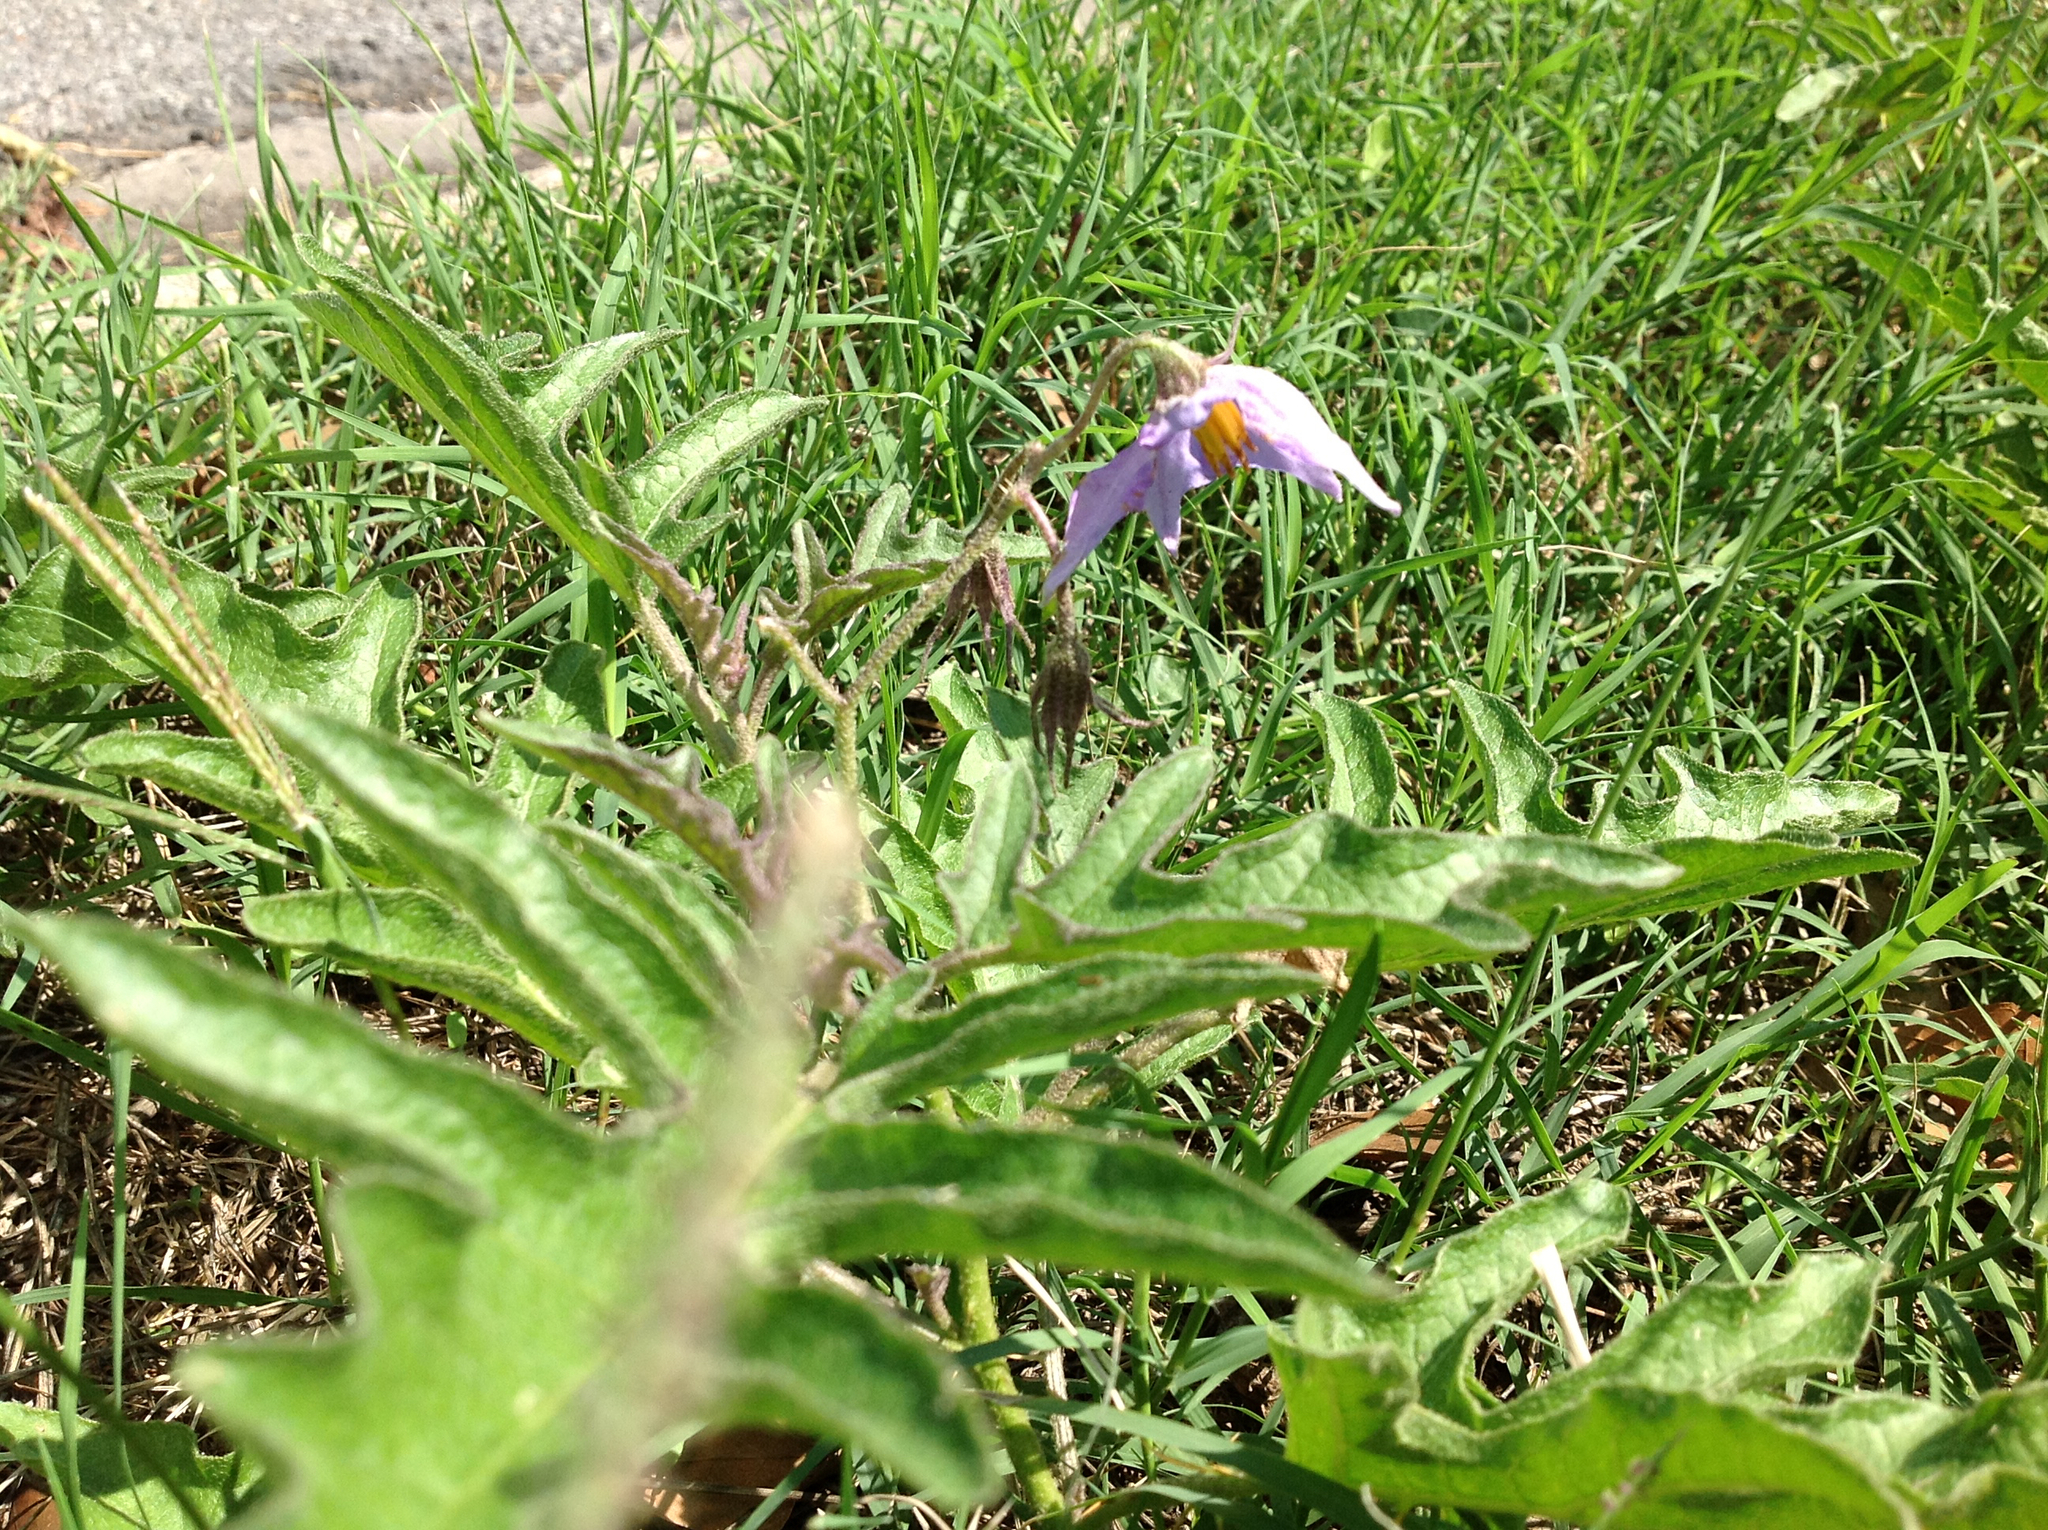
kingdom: Plantae
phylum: Tracheophyta
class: Magnoliopsida
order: Solanales
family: Solanaceae
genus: Solanum
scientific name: Solanum dimidiatum
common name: Carolina horse-nettle
